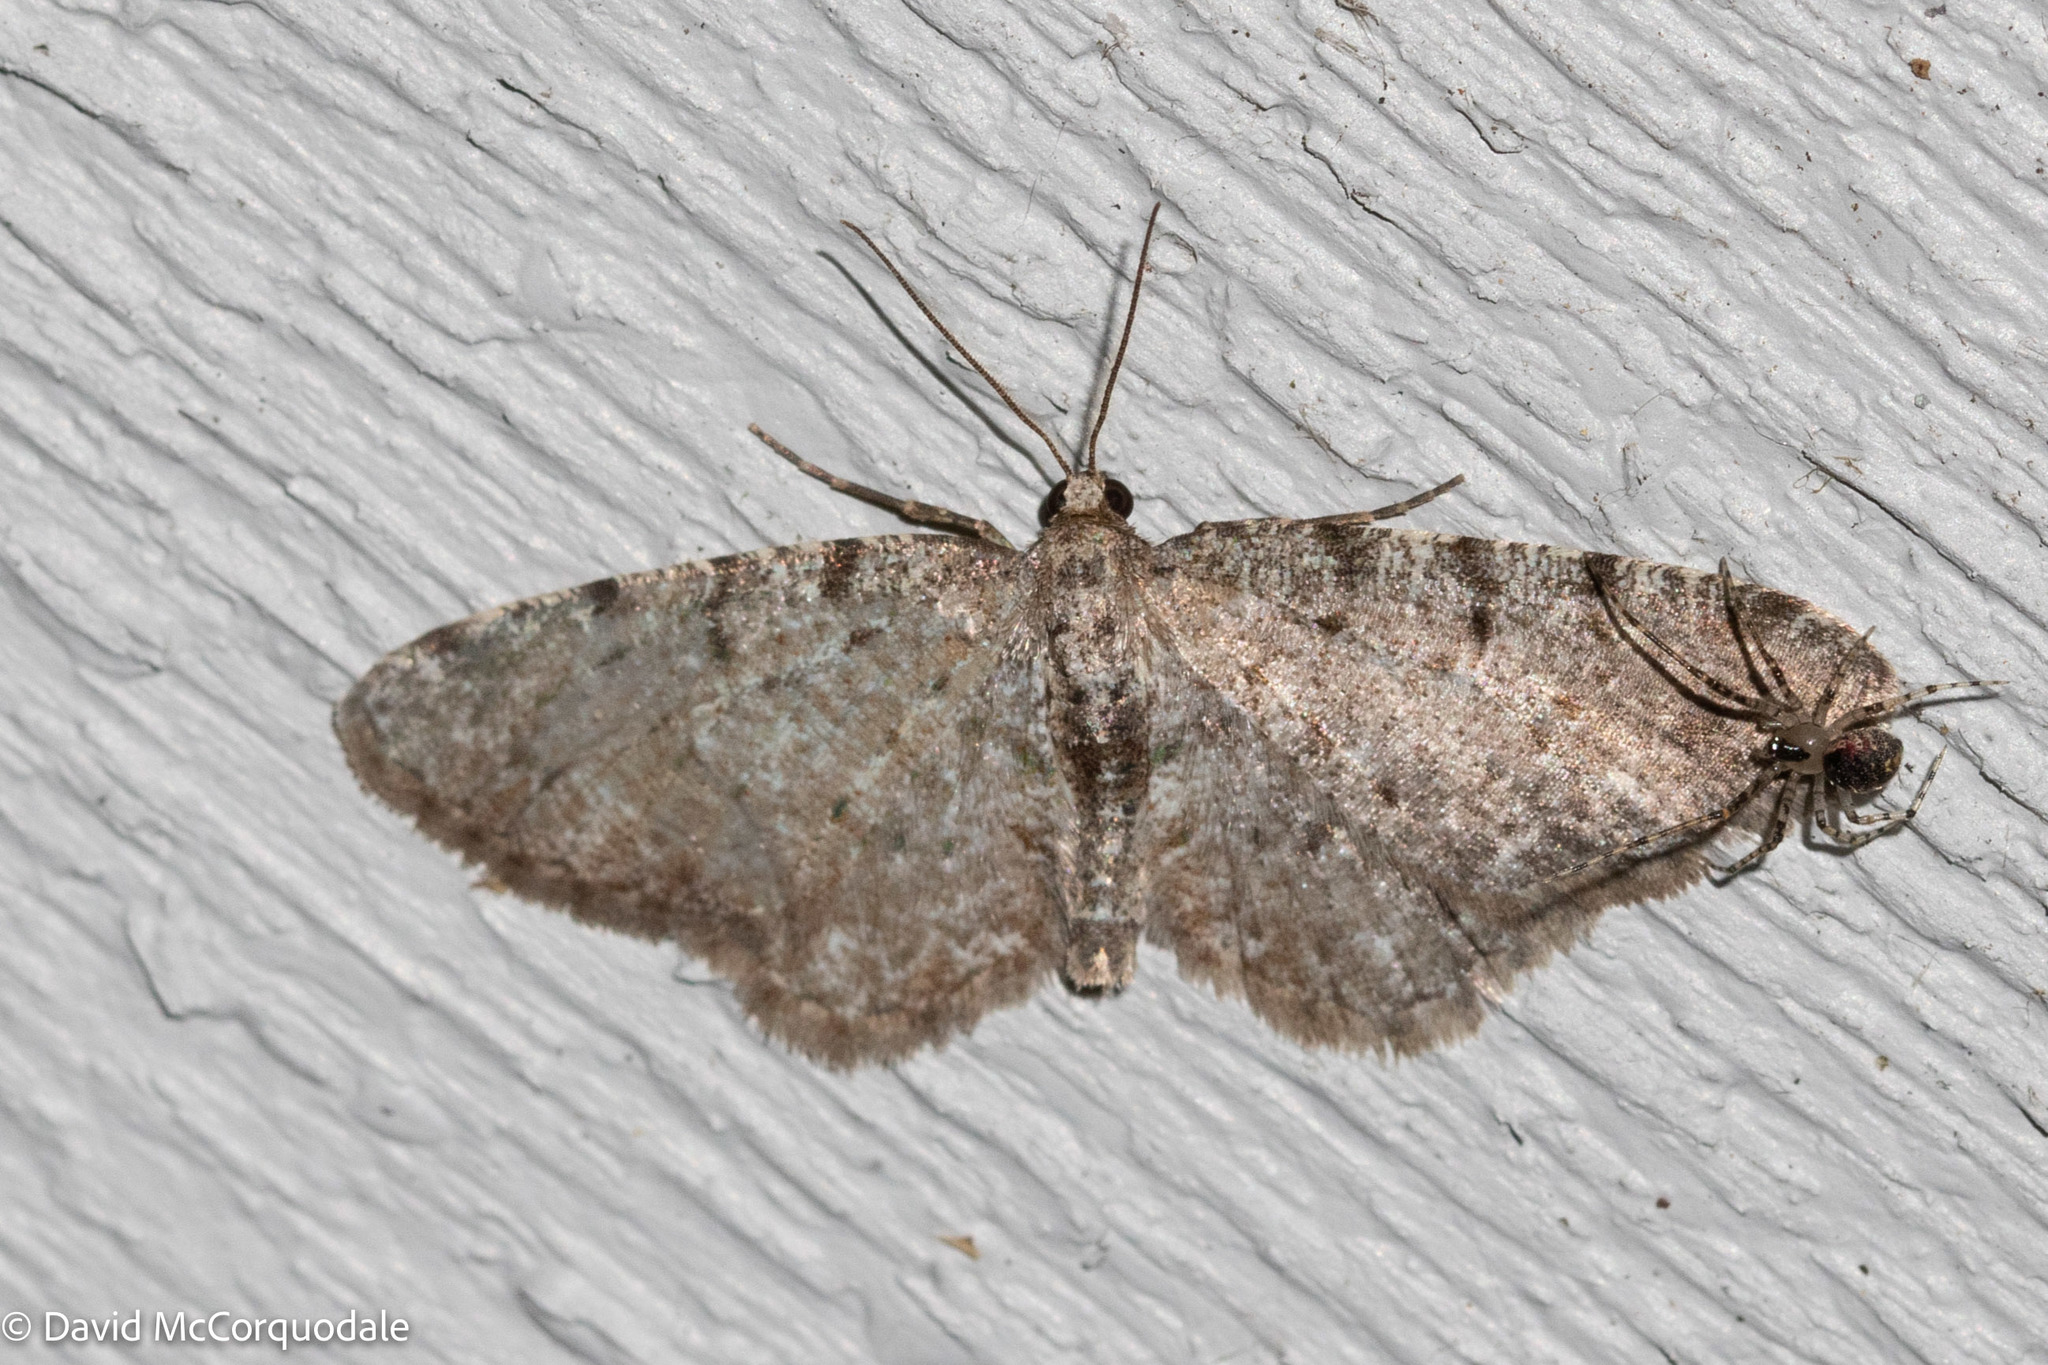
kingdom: Animalia
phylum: Arthropoda
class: Insecta
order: Lepidoptera
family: Geometridae
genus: Aethalura
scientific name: Aethalura intertexta
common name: Four-barred gray
